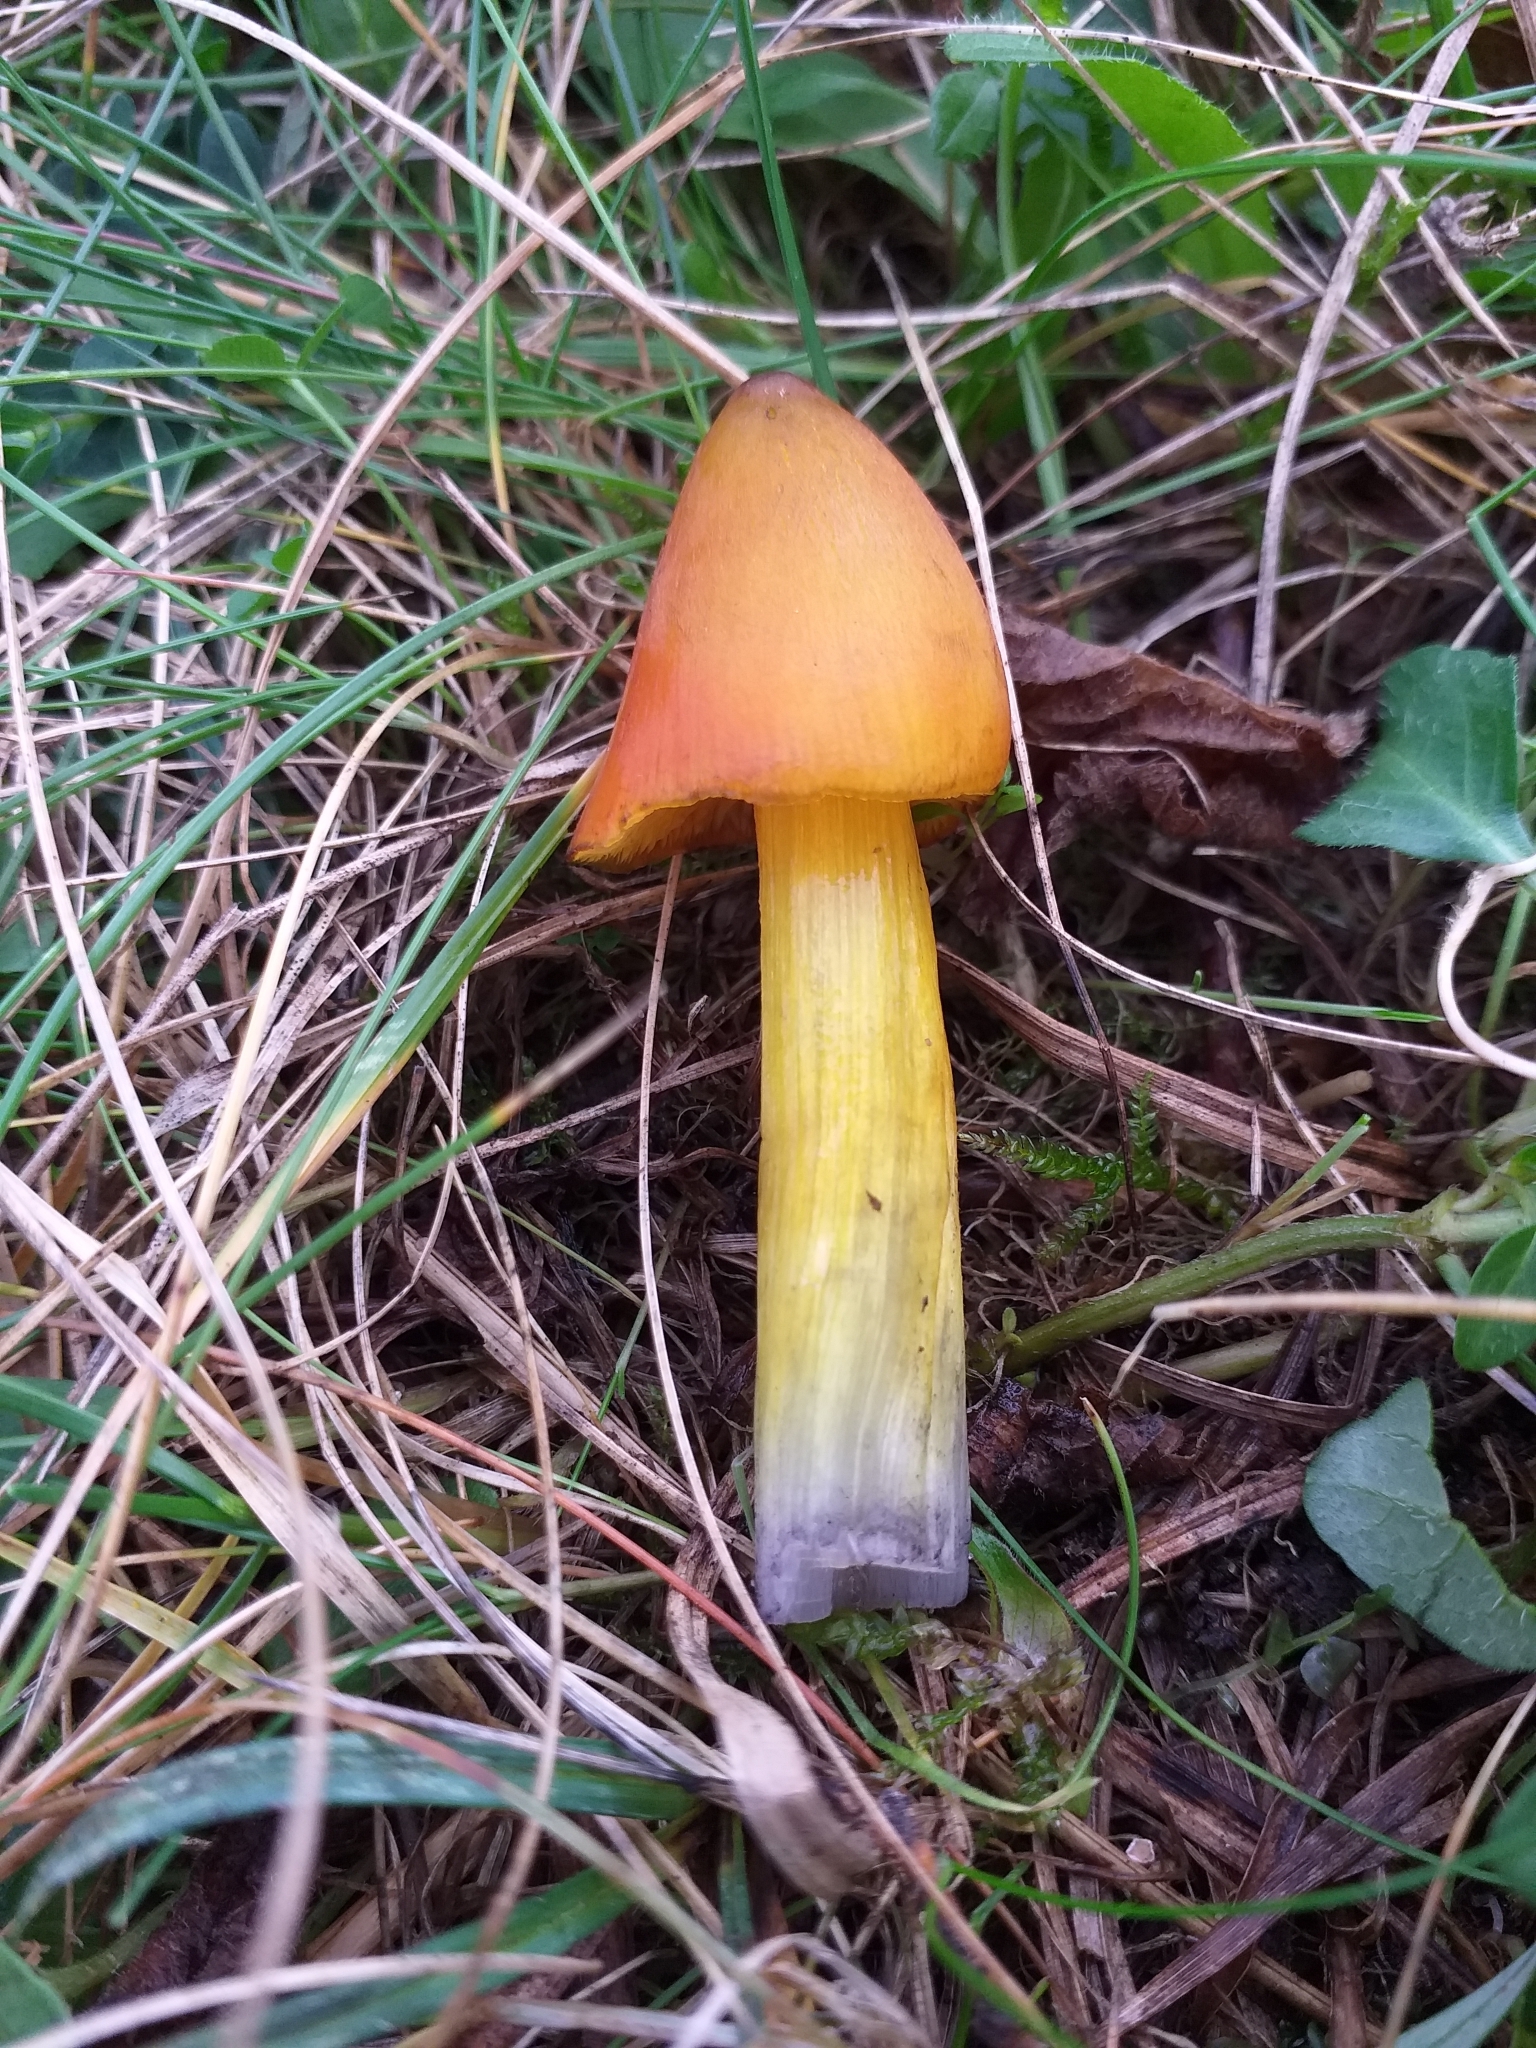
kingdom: Fungi
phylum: Basidiomycota
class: Agaricomycetes
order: Agaricales
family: Hygrophoraceae
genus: Hygrocybe
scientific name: Hygrocybe conica
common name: Blackening wax-cap
